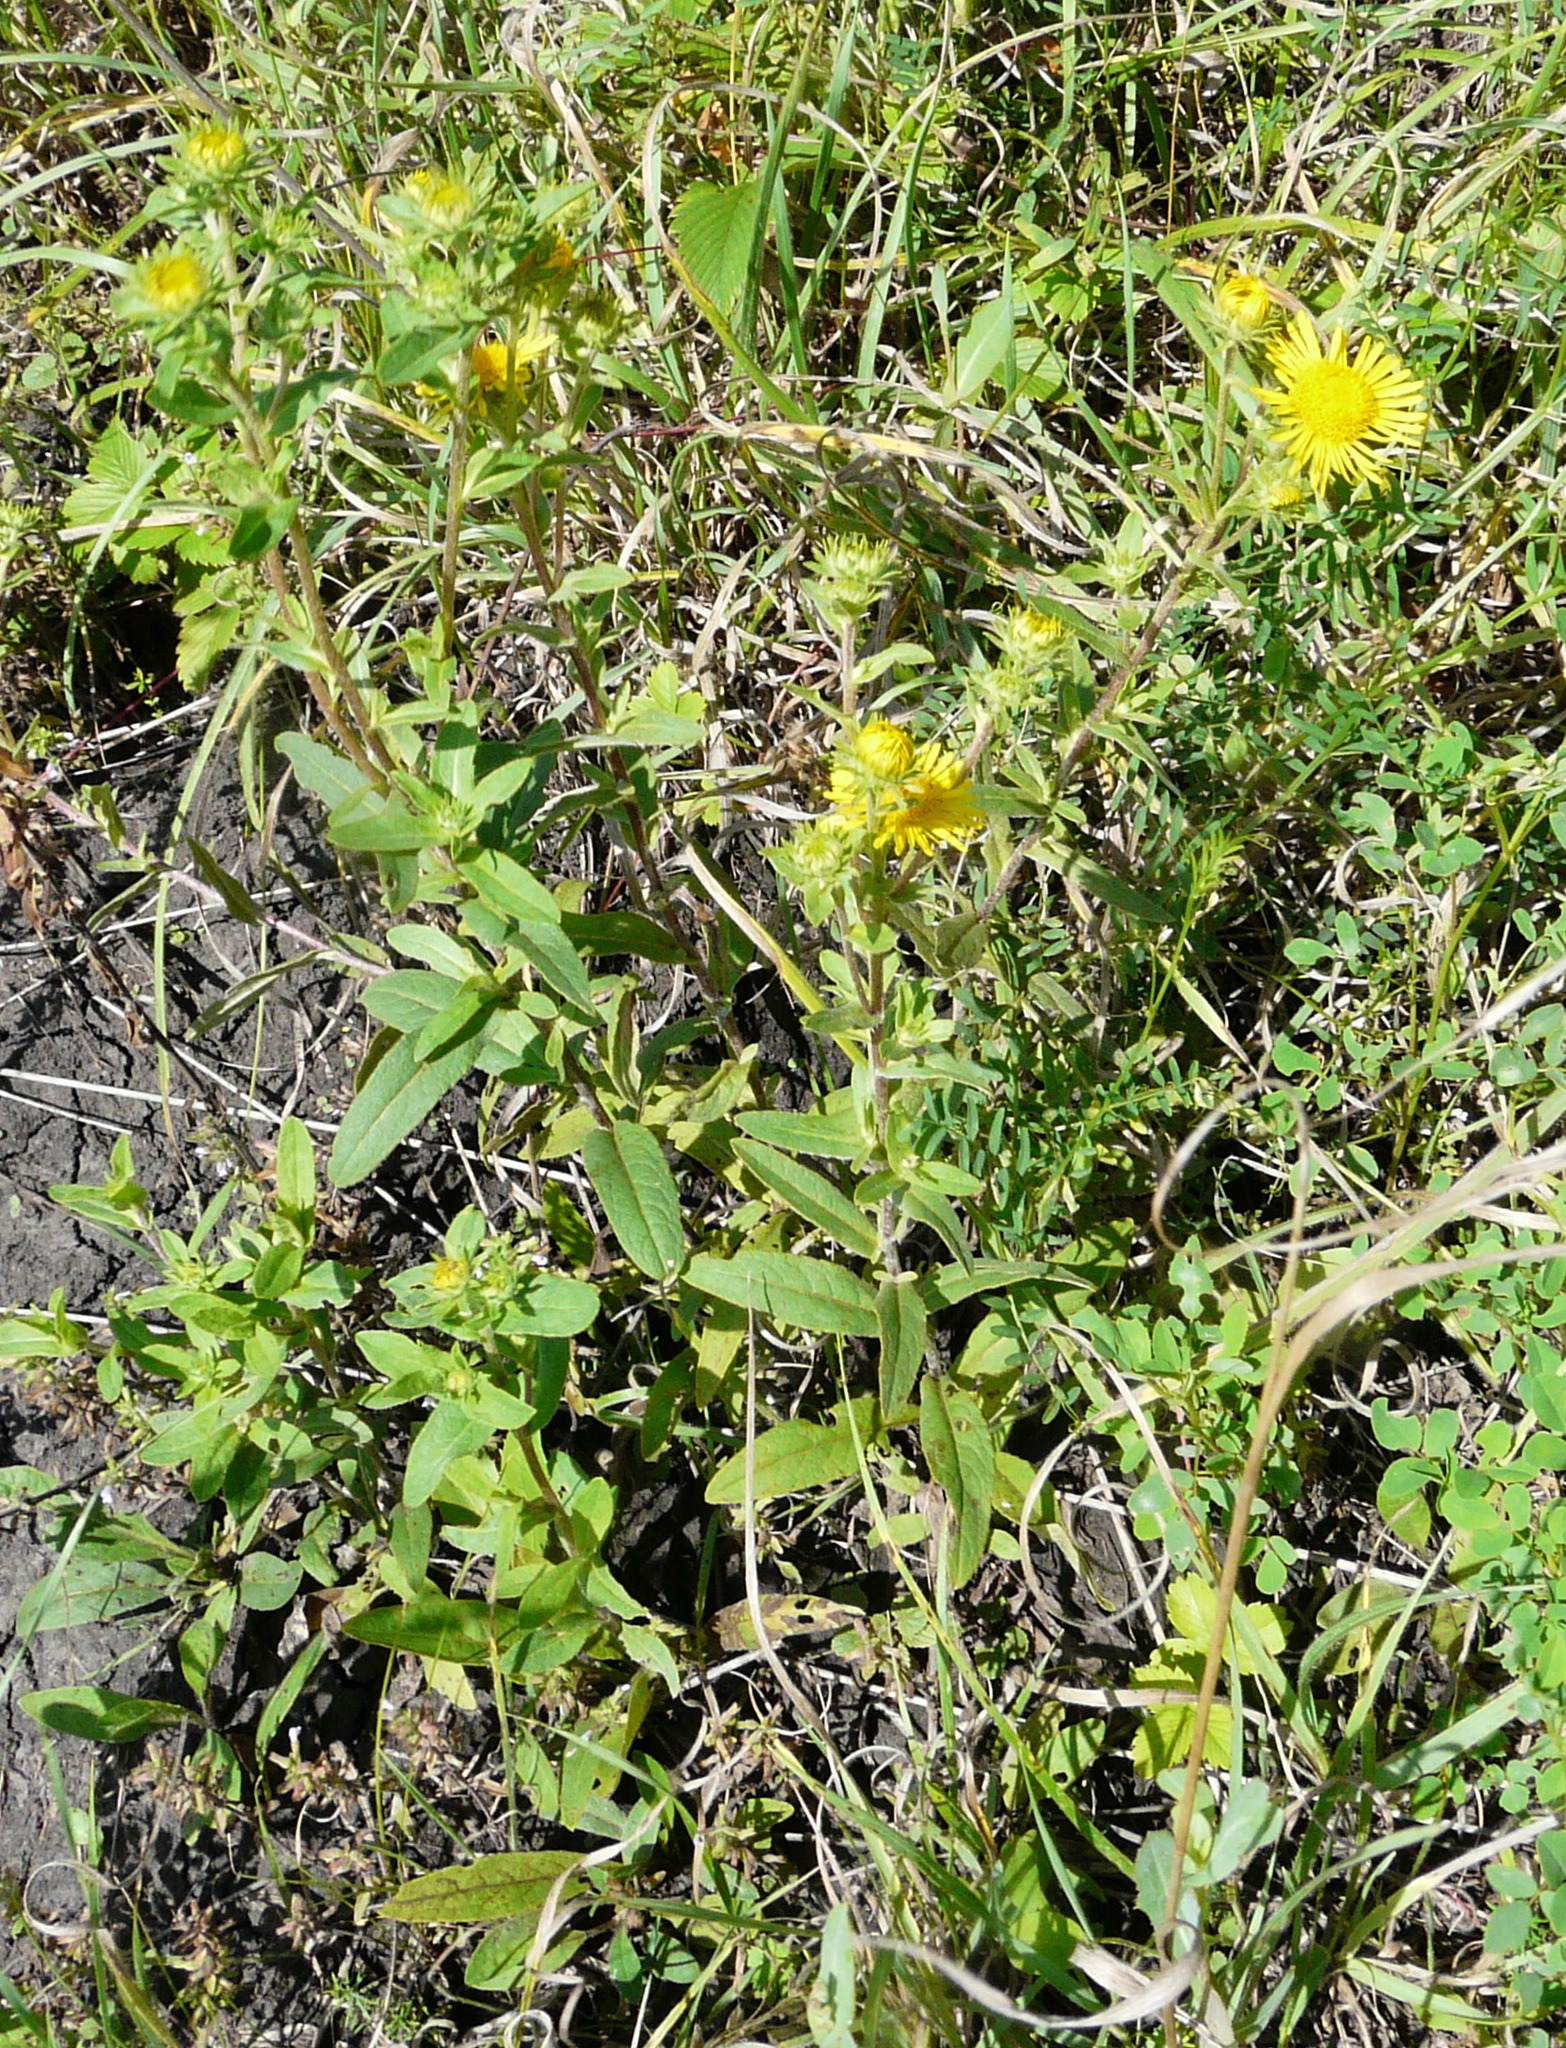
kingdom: Plantae
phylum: Tracheophyta
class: Magnoliopsida
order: Asterales
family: Asteraceae
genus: Pentanema
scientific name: Pentanema britannicum
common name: British elecampane
